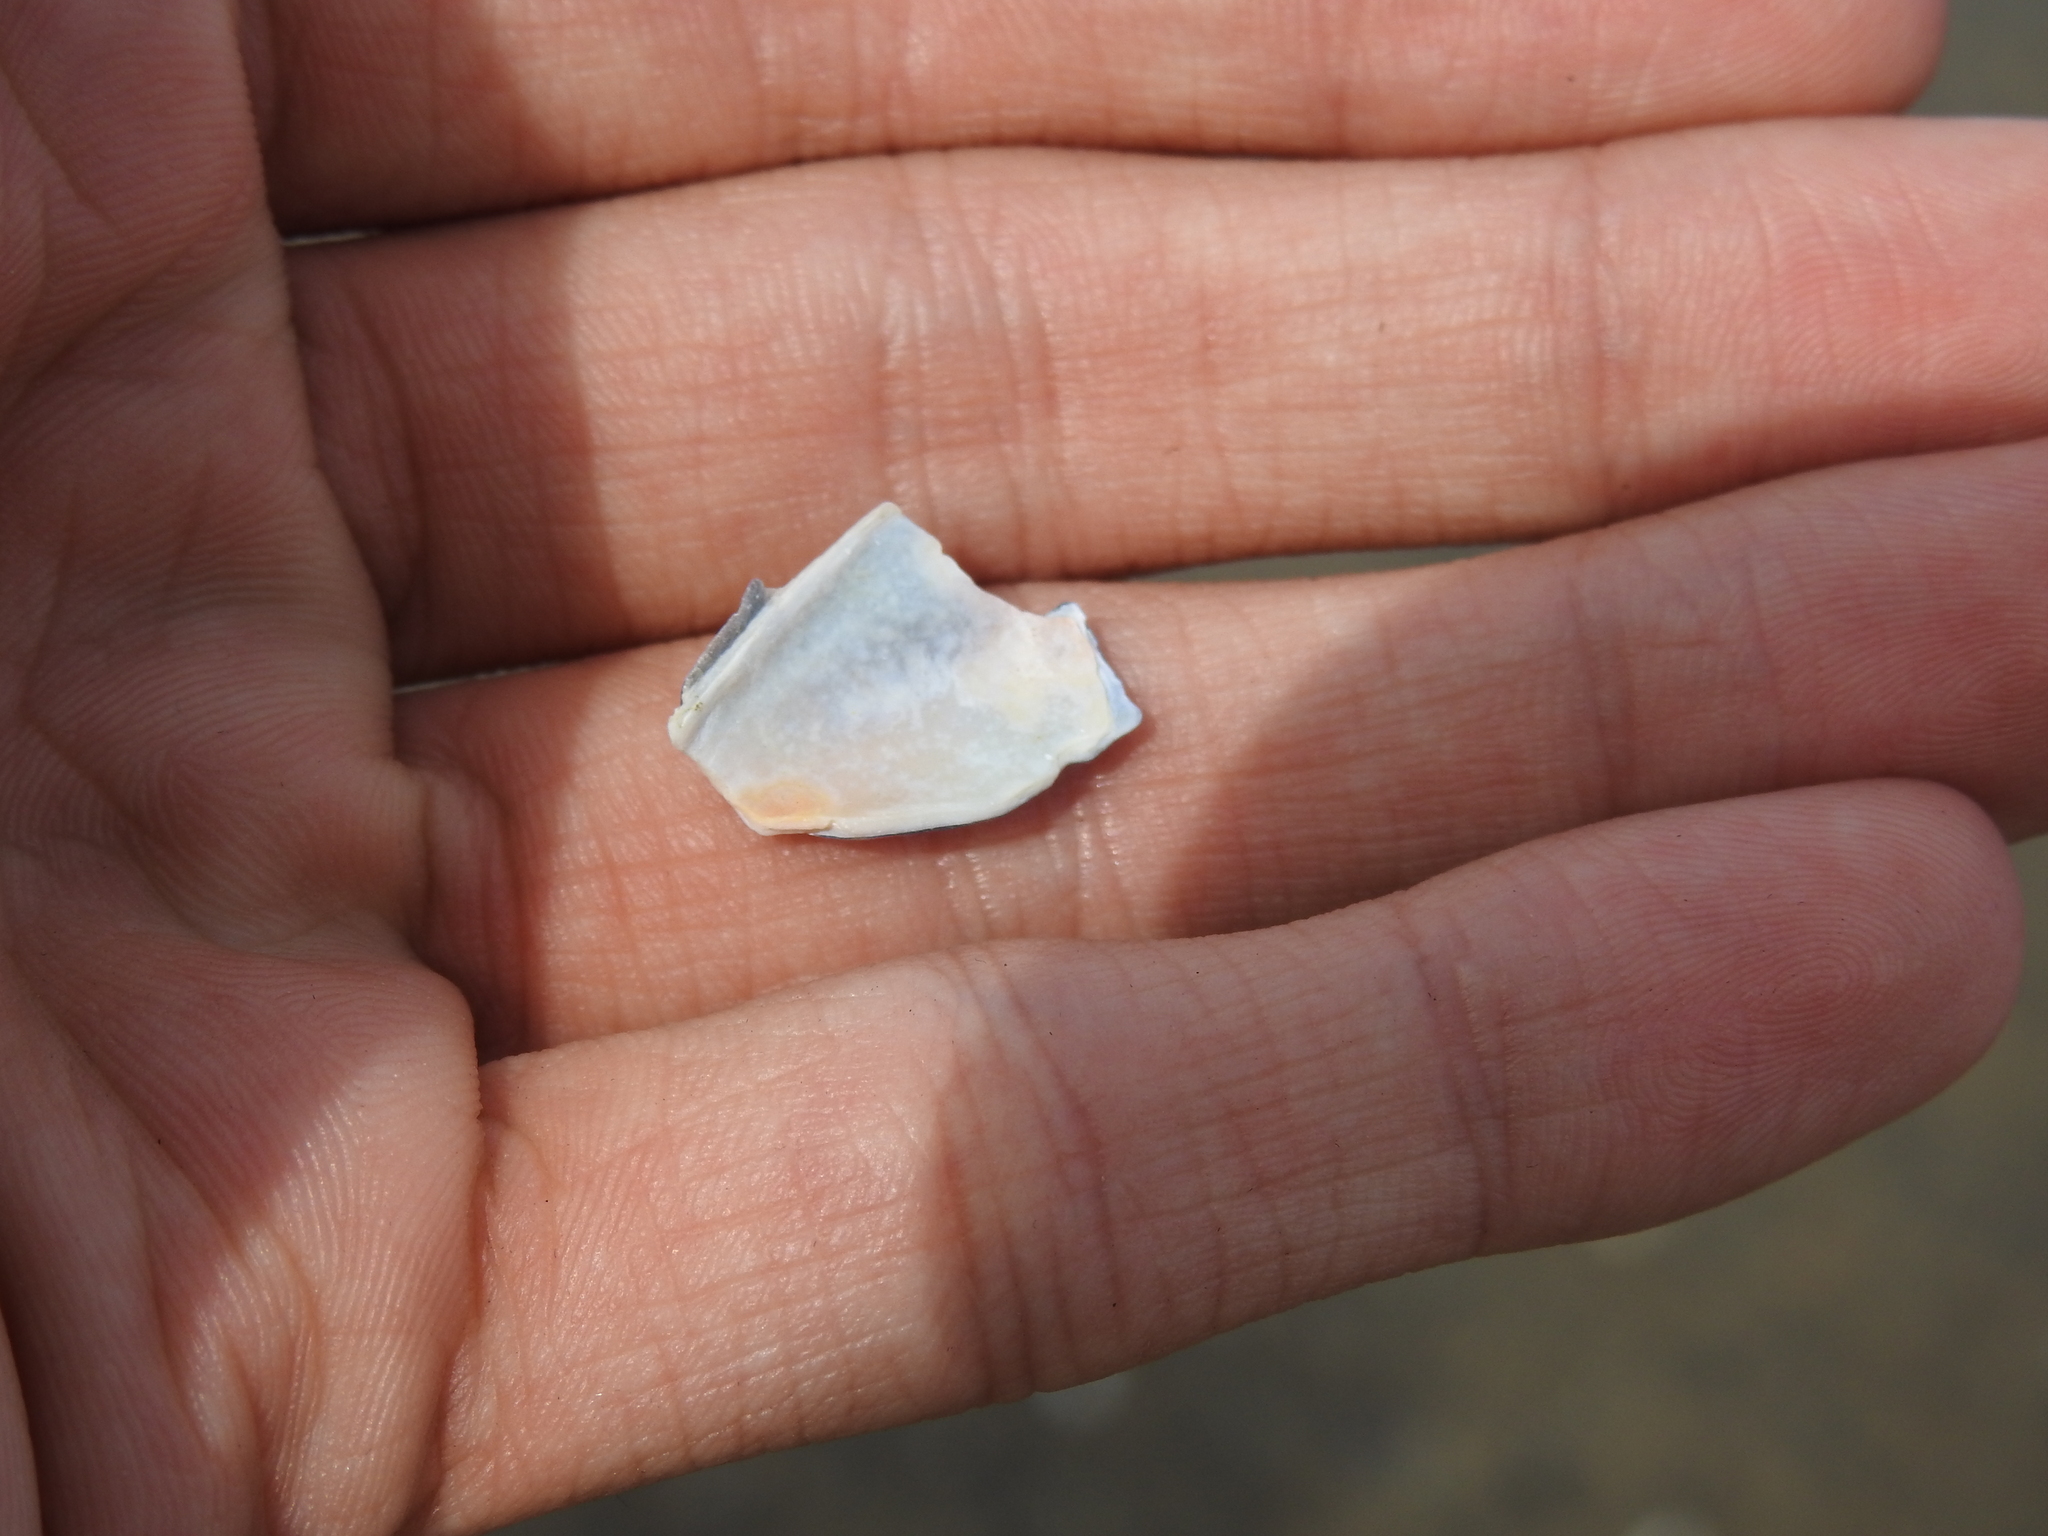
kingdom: Animalia
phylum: Mollusca
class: Bivalvia
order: Mytilida
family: Mytilidae
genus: Mytilus
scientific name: Mytilus edulis
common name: Blue mussel
